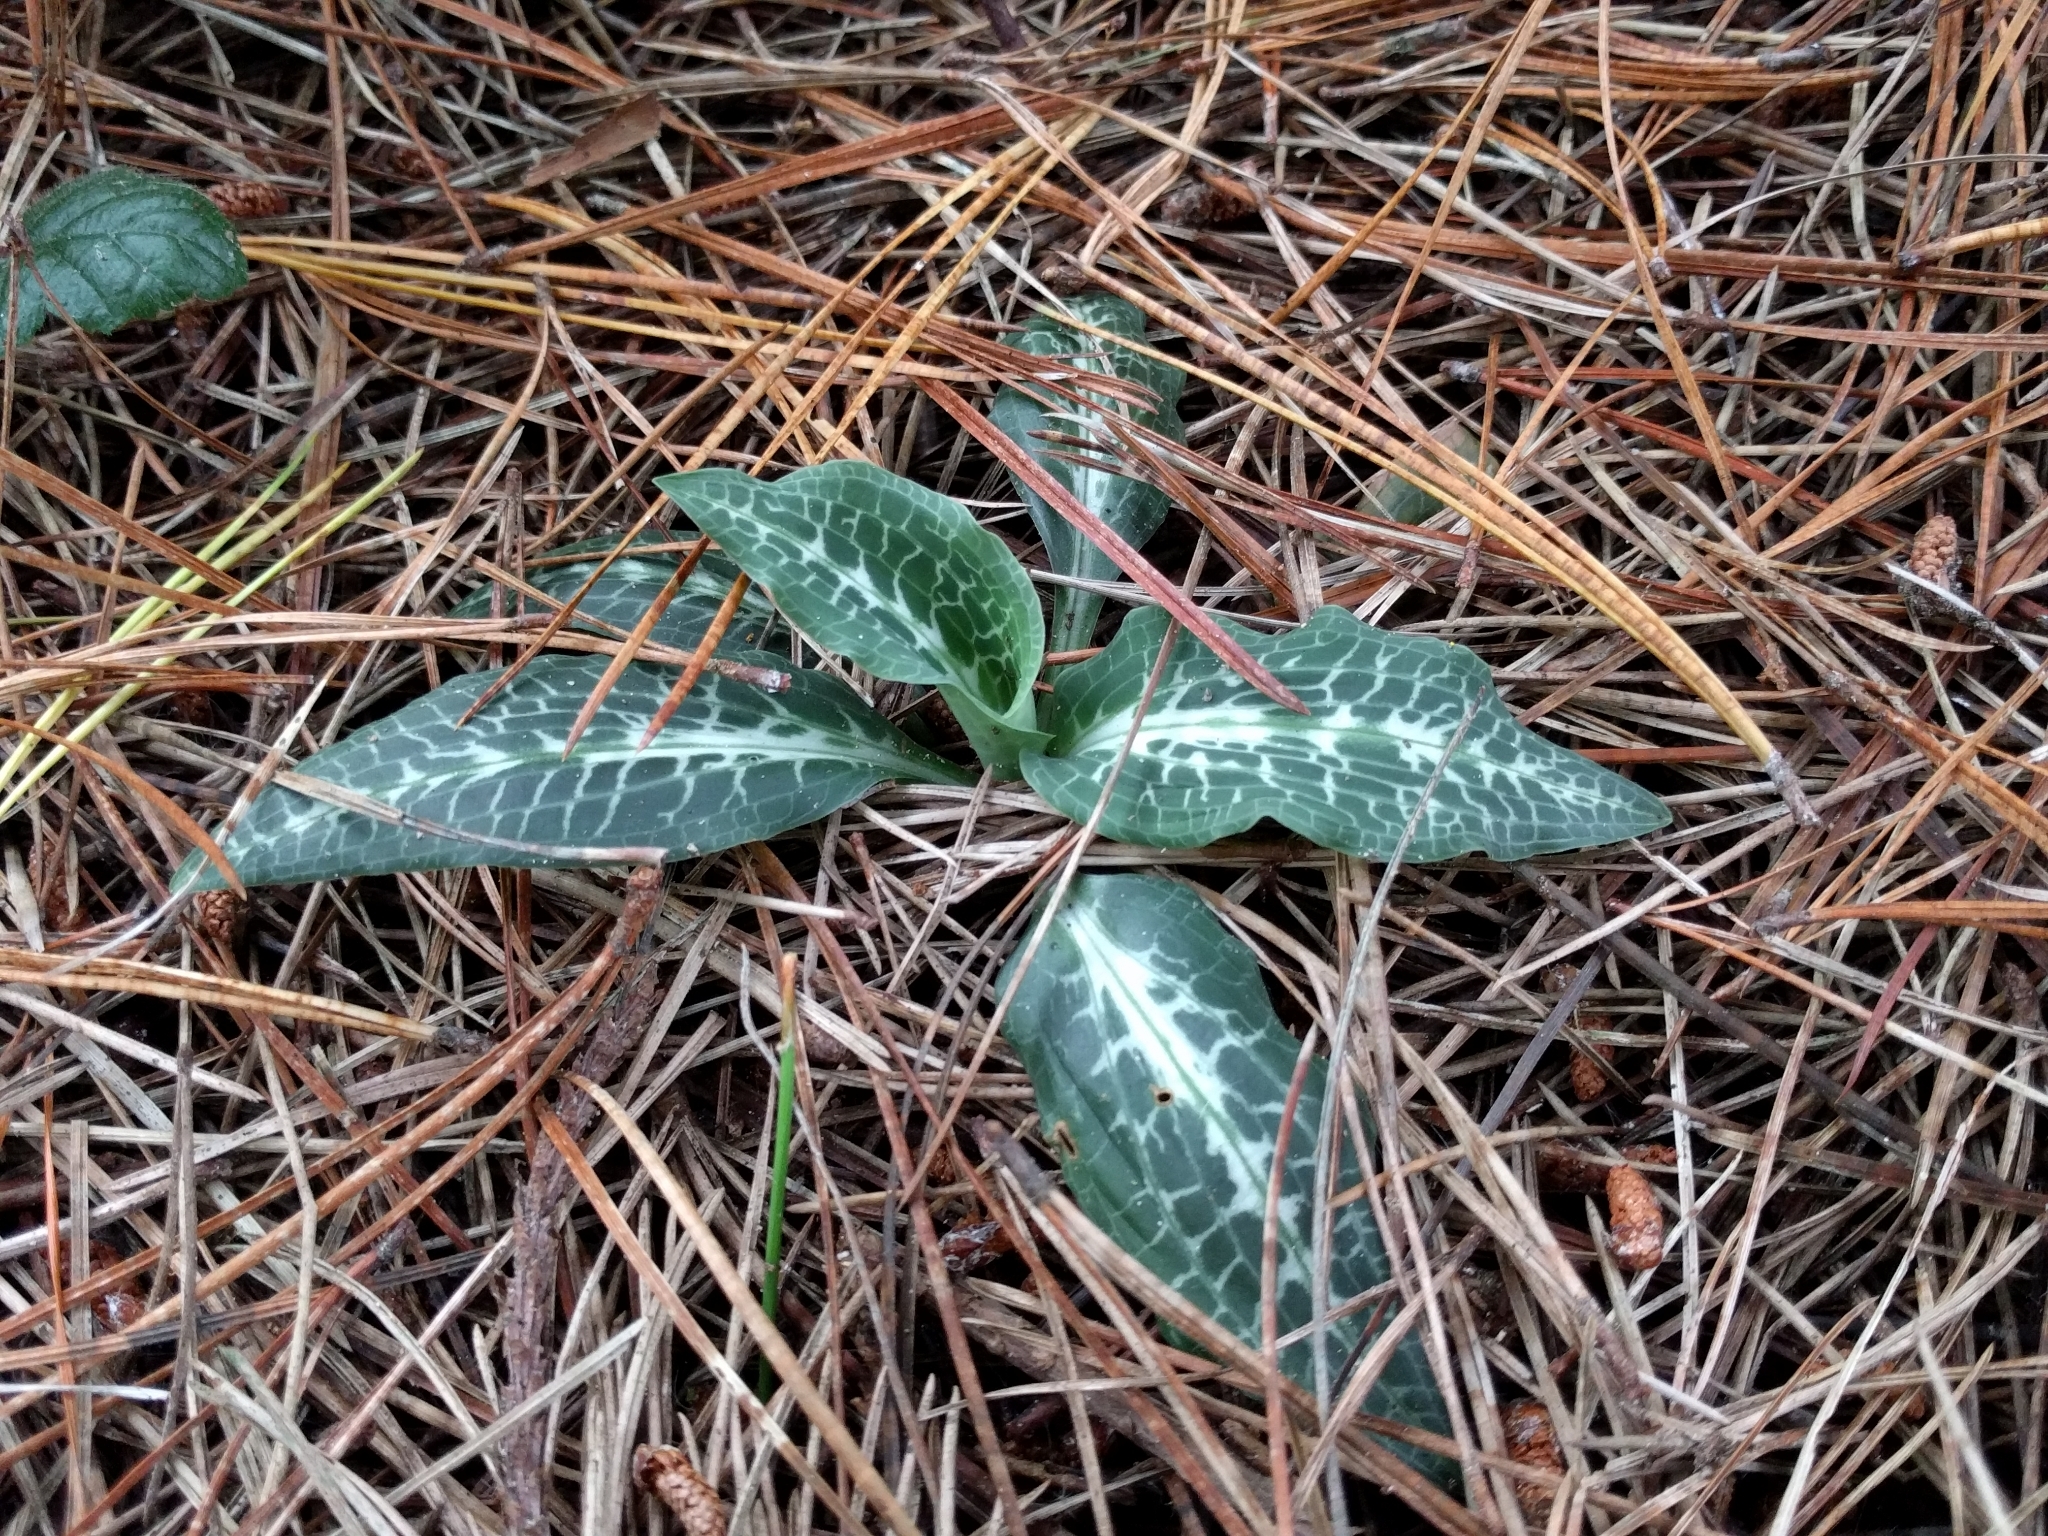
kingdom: Plantae
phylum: Tracheophyta
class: Liliopsida
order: Asparagales
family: Orchidaceae
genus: Goodyera
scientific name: Goodyera oblongifolia
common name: Giant rattlesnake-plantain
